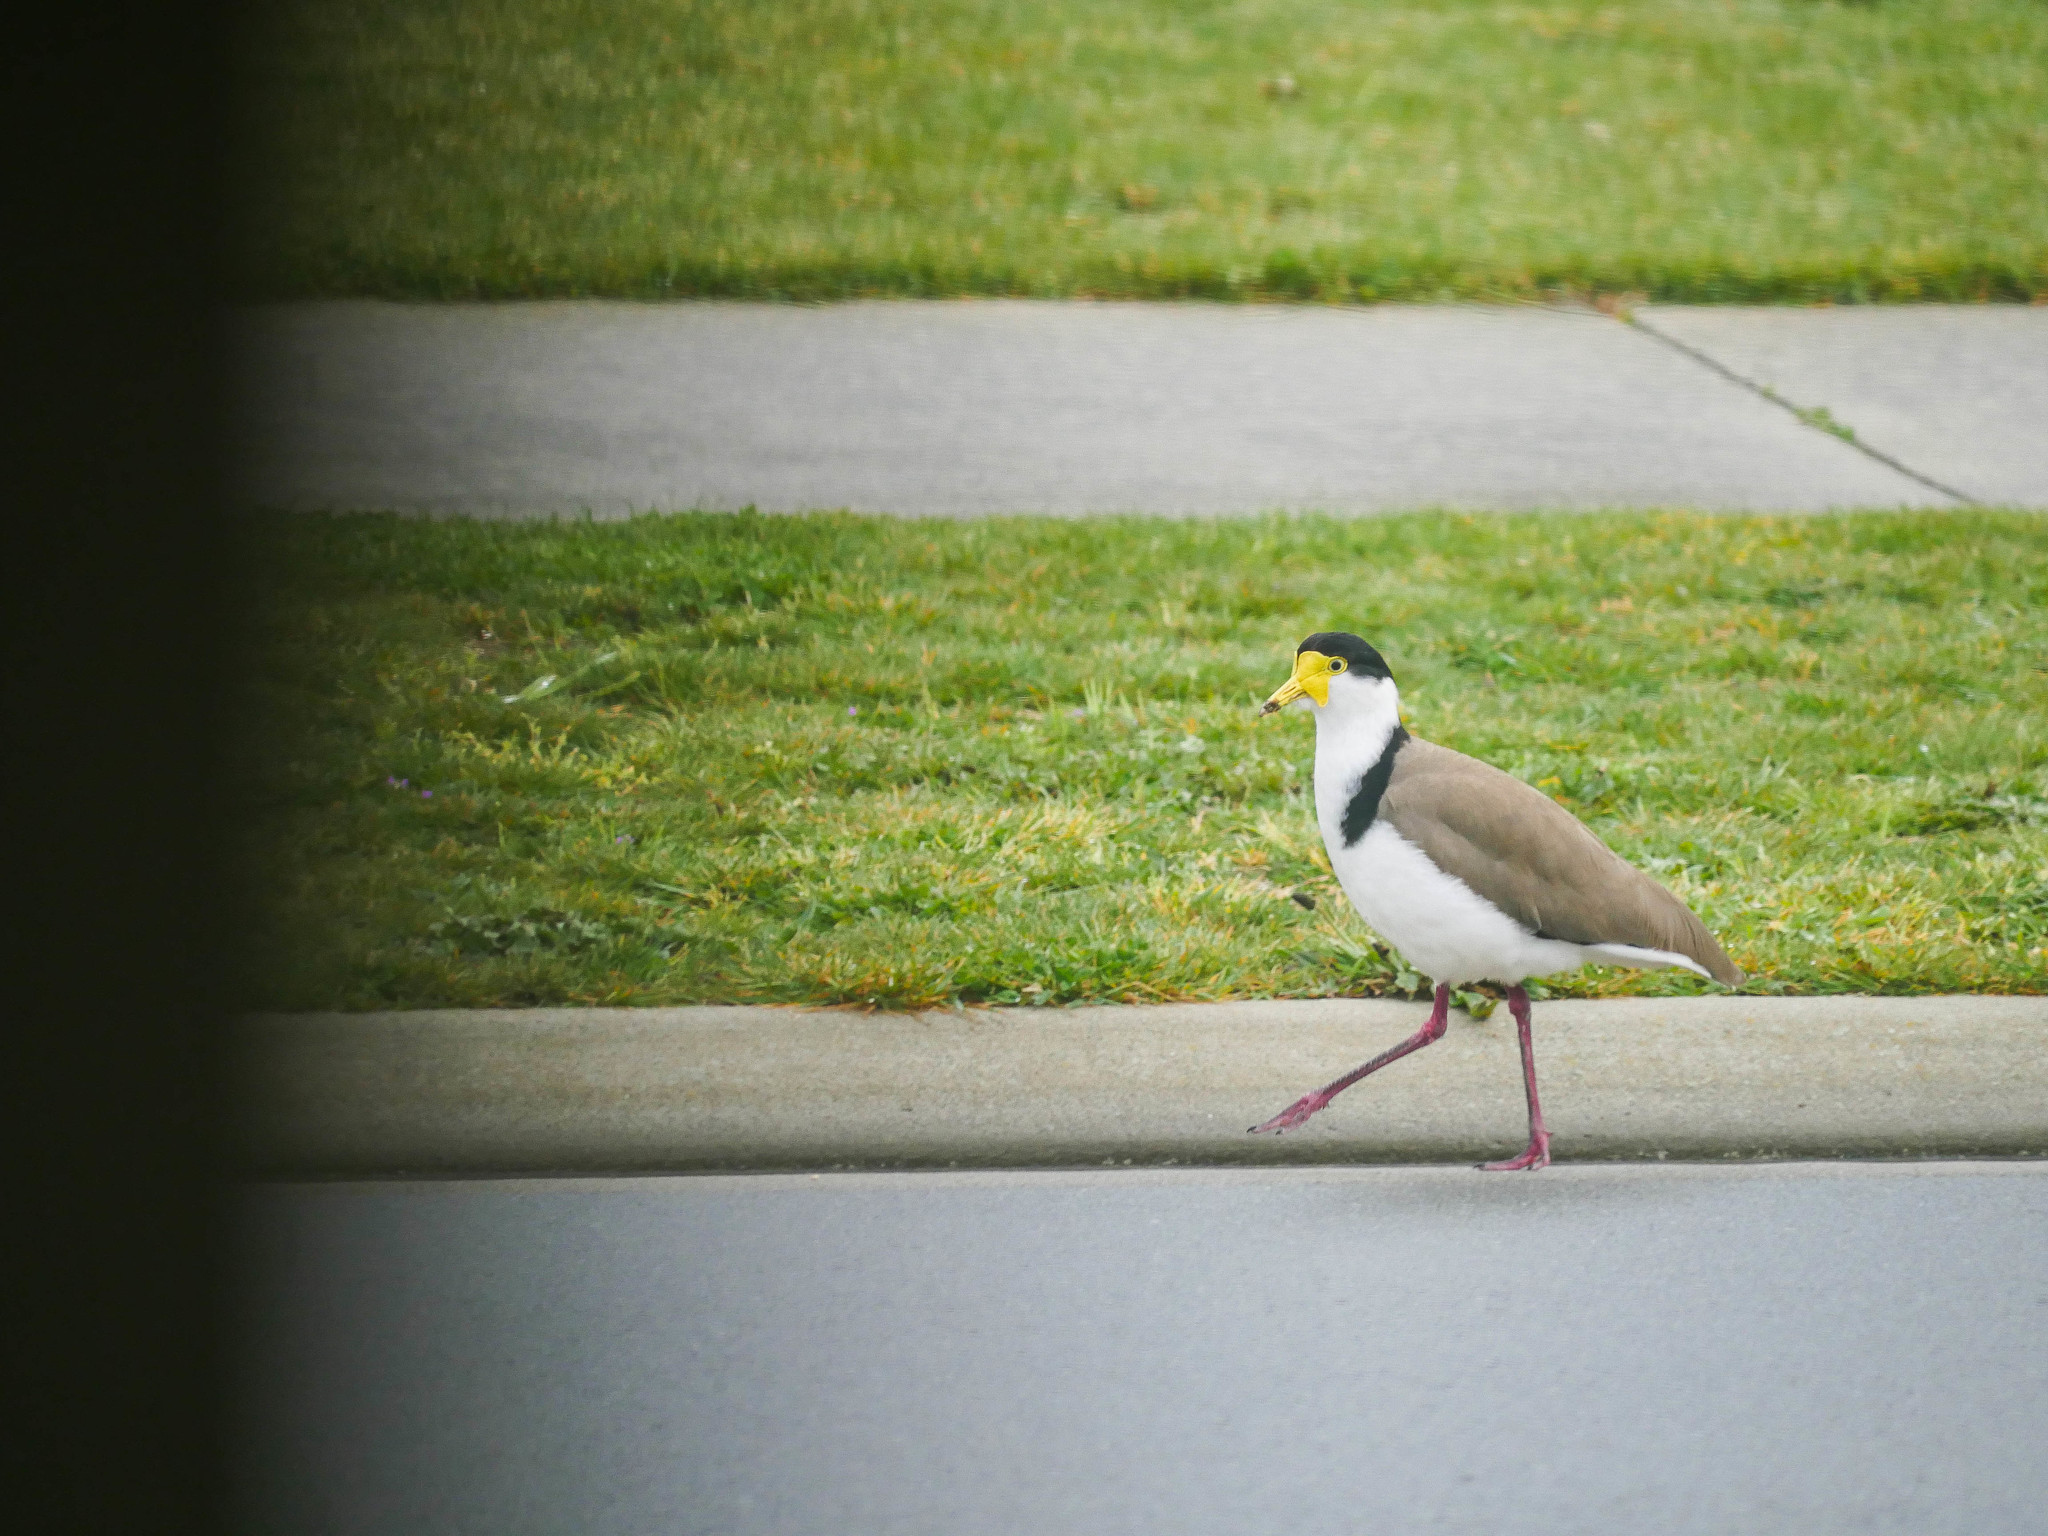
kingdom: Animalia
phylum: Chordata
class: Aves
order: Charadriiformes
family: Charadriidae
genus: Vanellus
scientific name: Vanellus miles
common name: Masked lapwing
